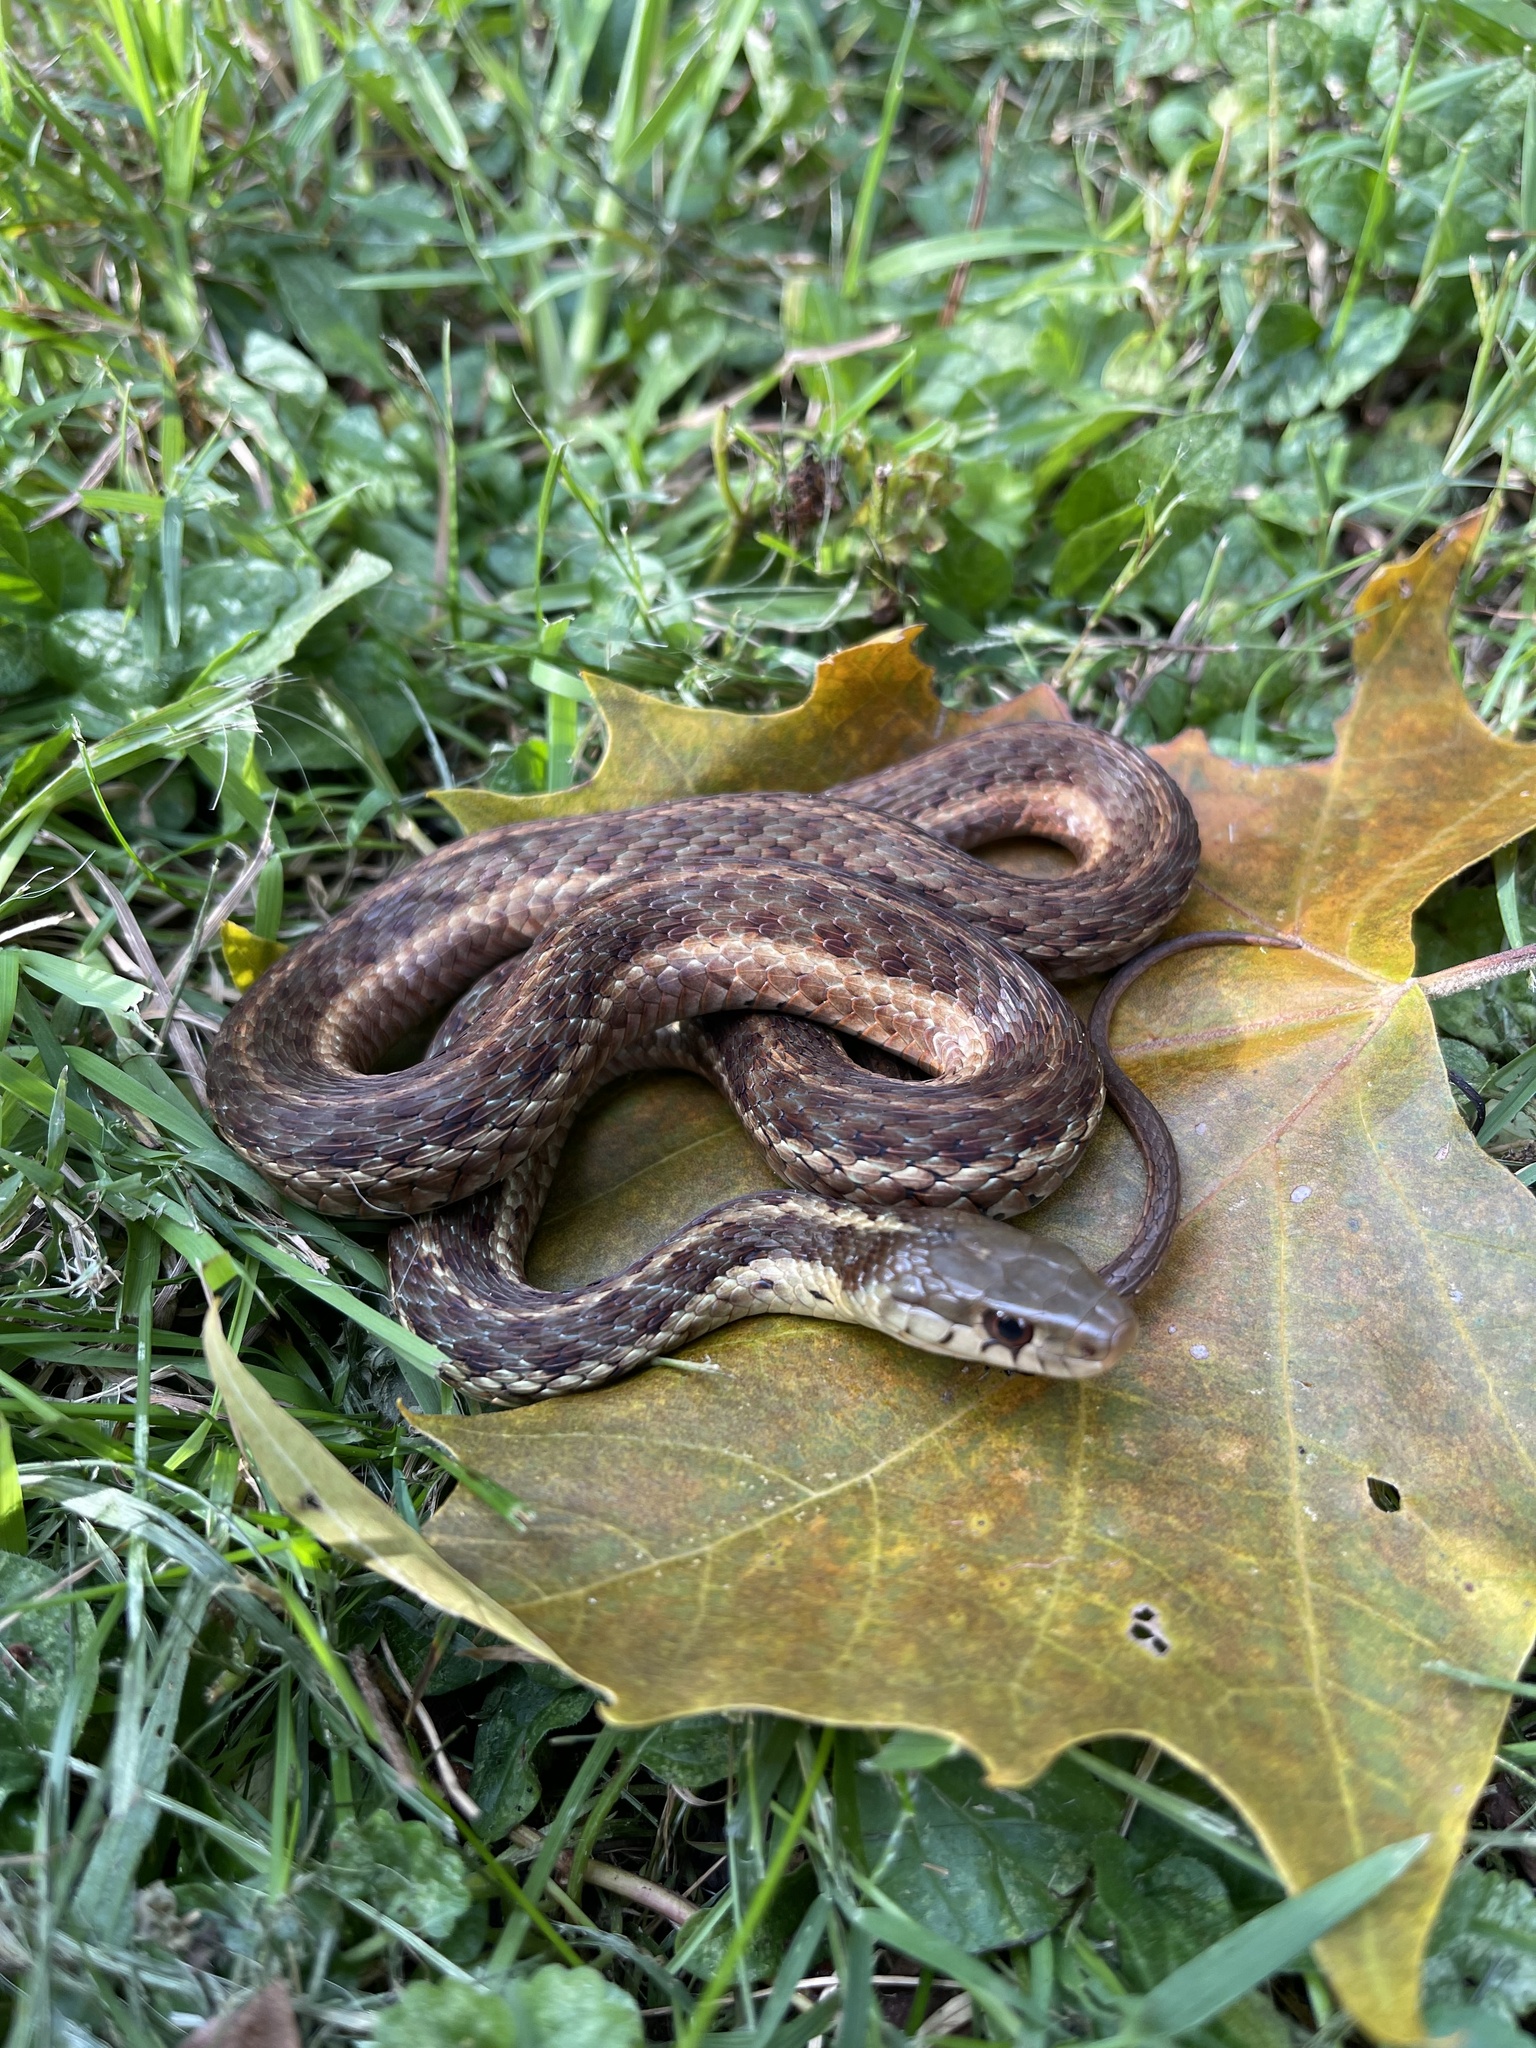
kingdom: Animalia
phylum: Chordata
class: Squamata
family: Colubridae
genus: Thamnophis
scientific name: Thamnophis sirtalis
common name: Common garter snake
